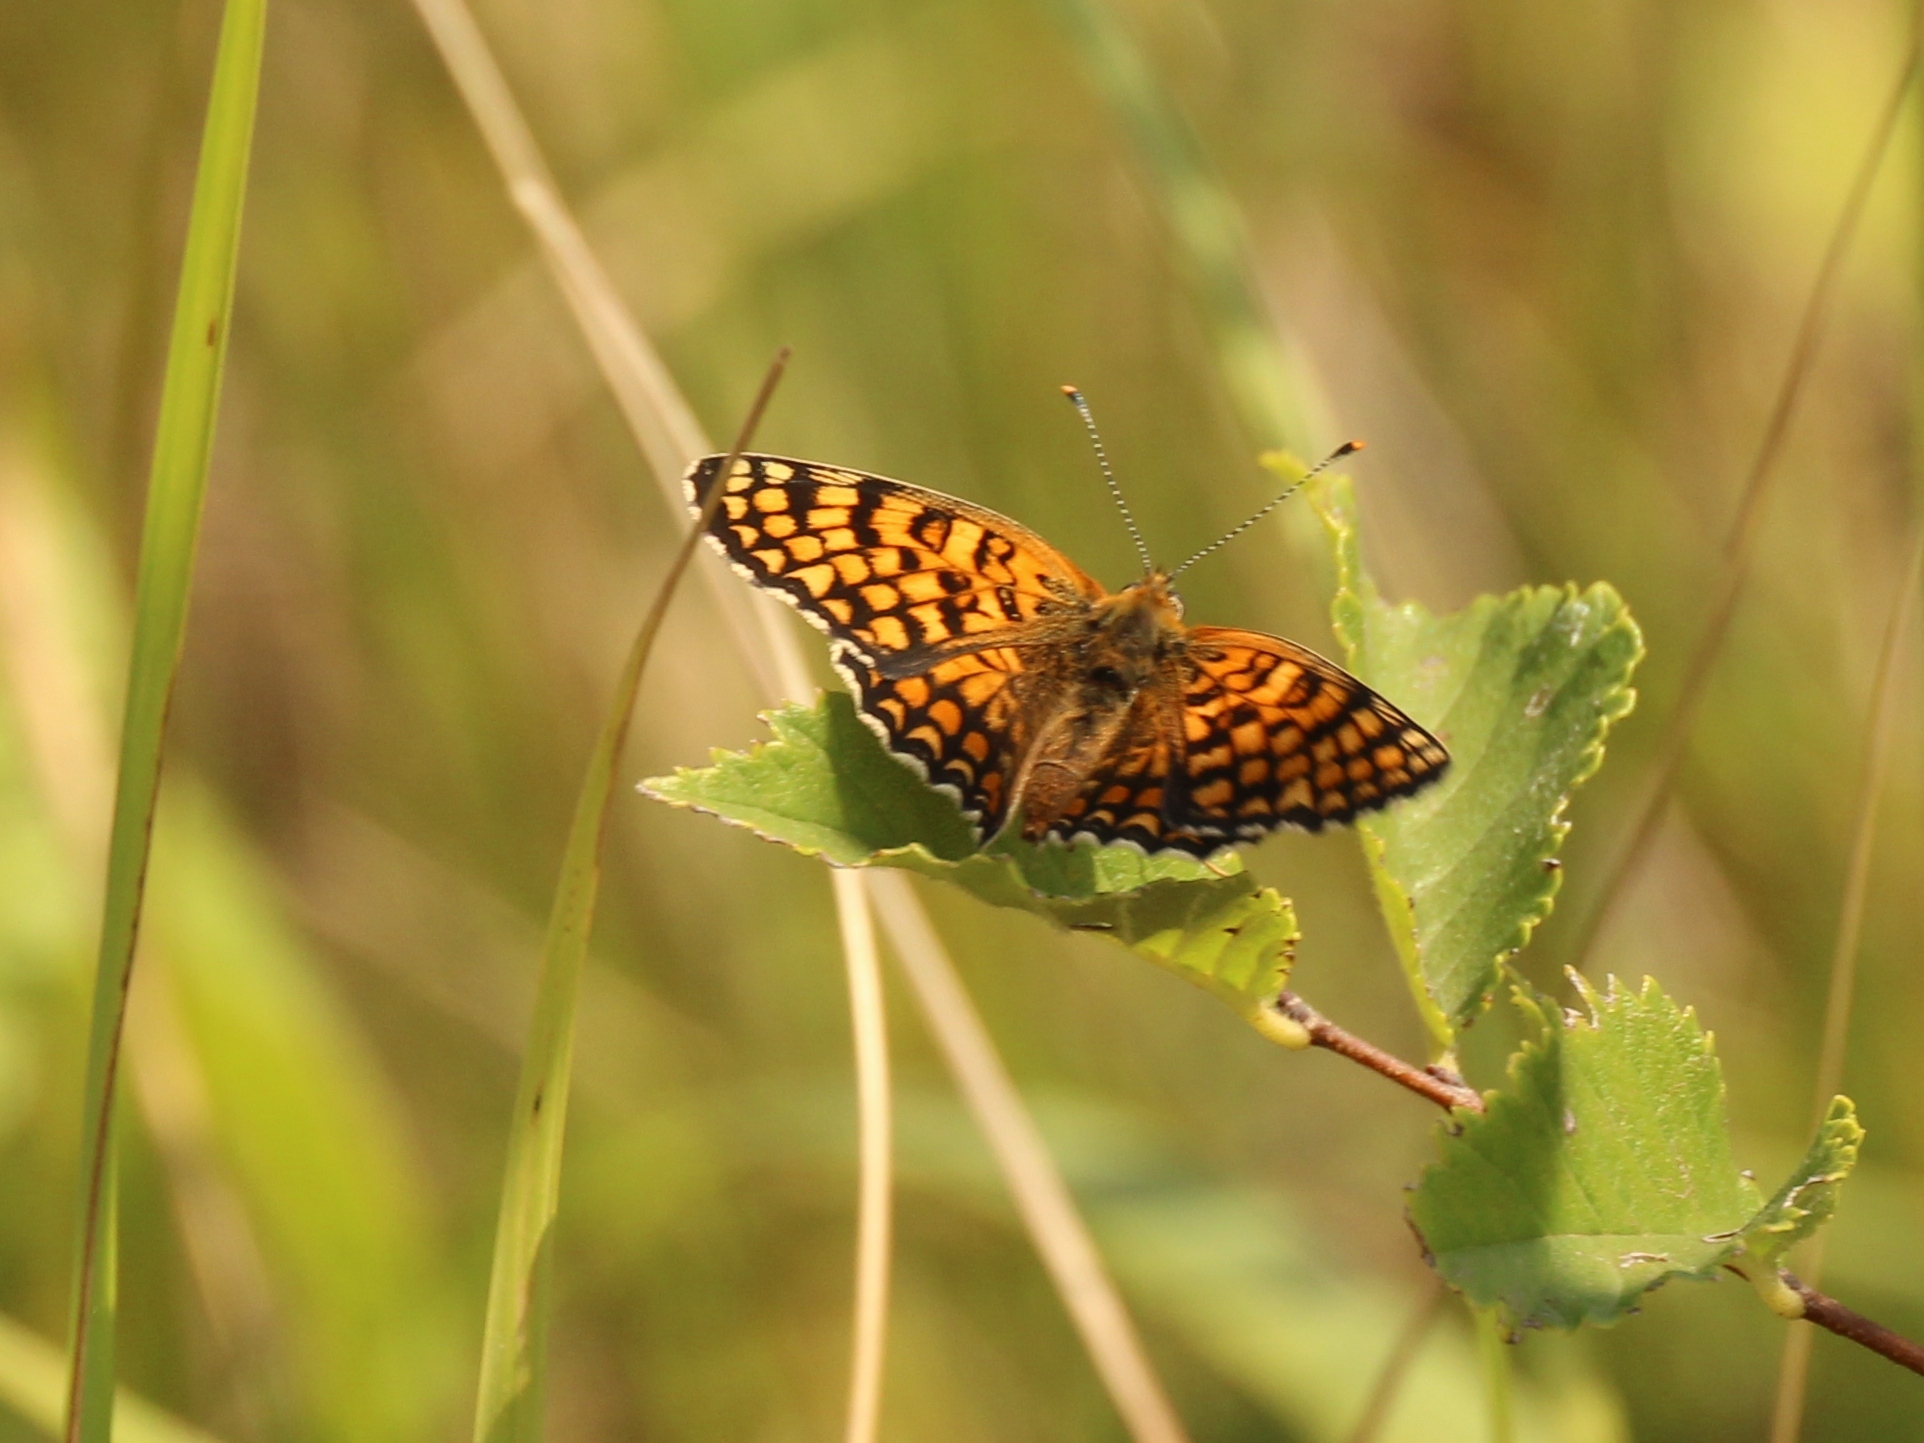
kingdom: Animalia
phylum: Arthropoda
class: Insecta
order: Lepidoptera
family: Nymphalidae
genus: Melitaea
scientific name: Melitaea phoebe
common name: Knapweed fritillary
